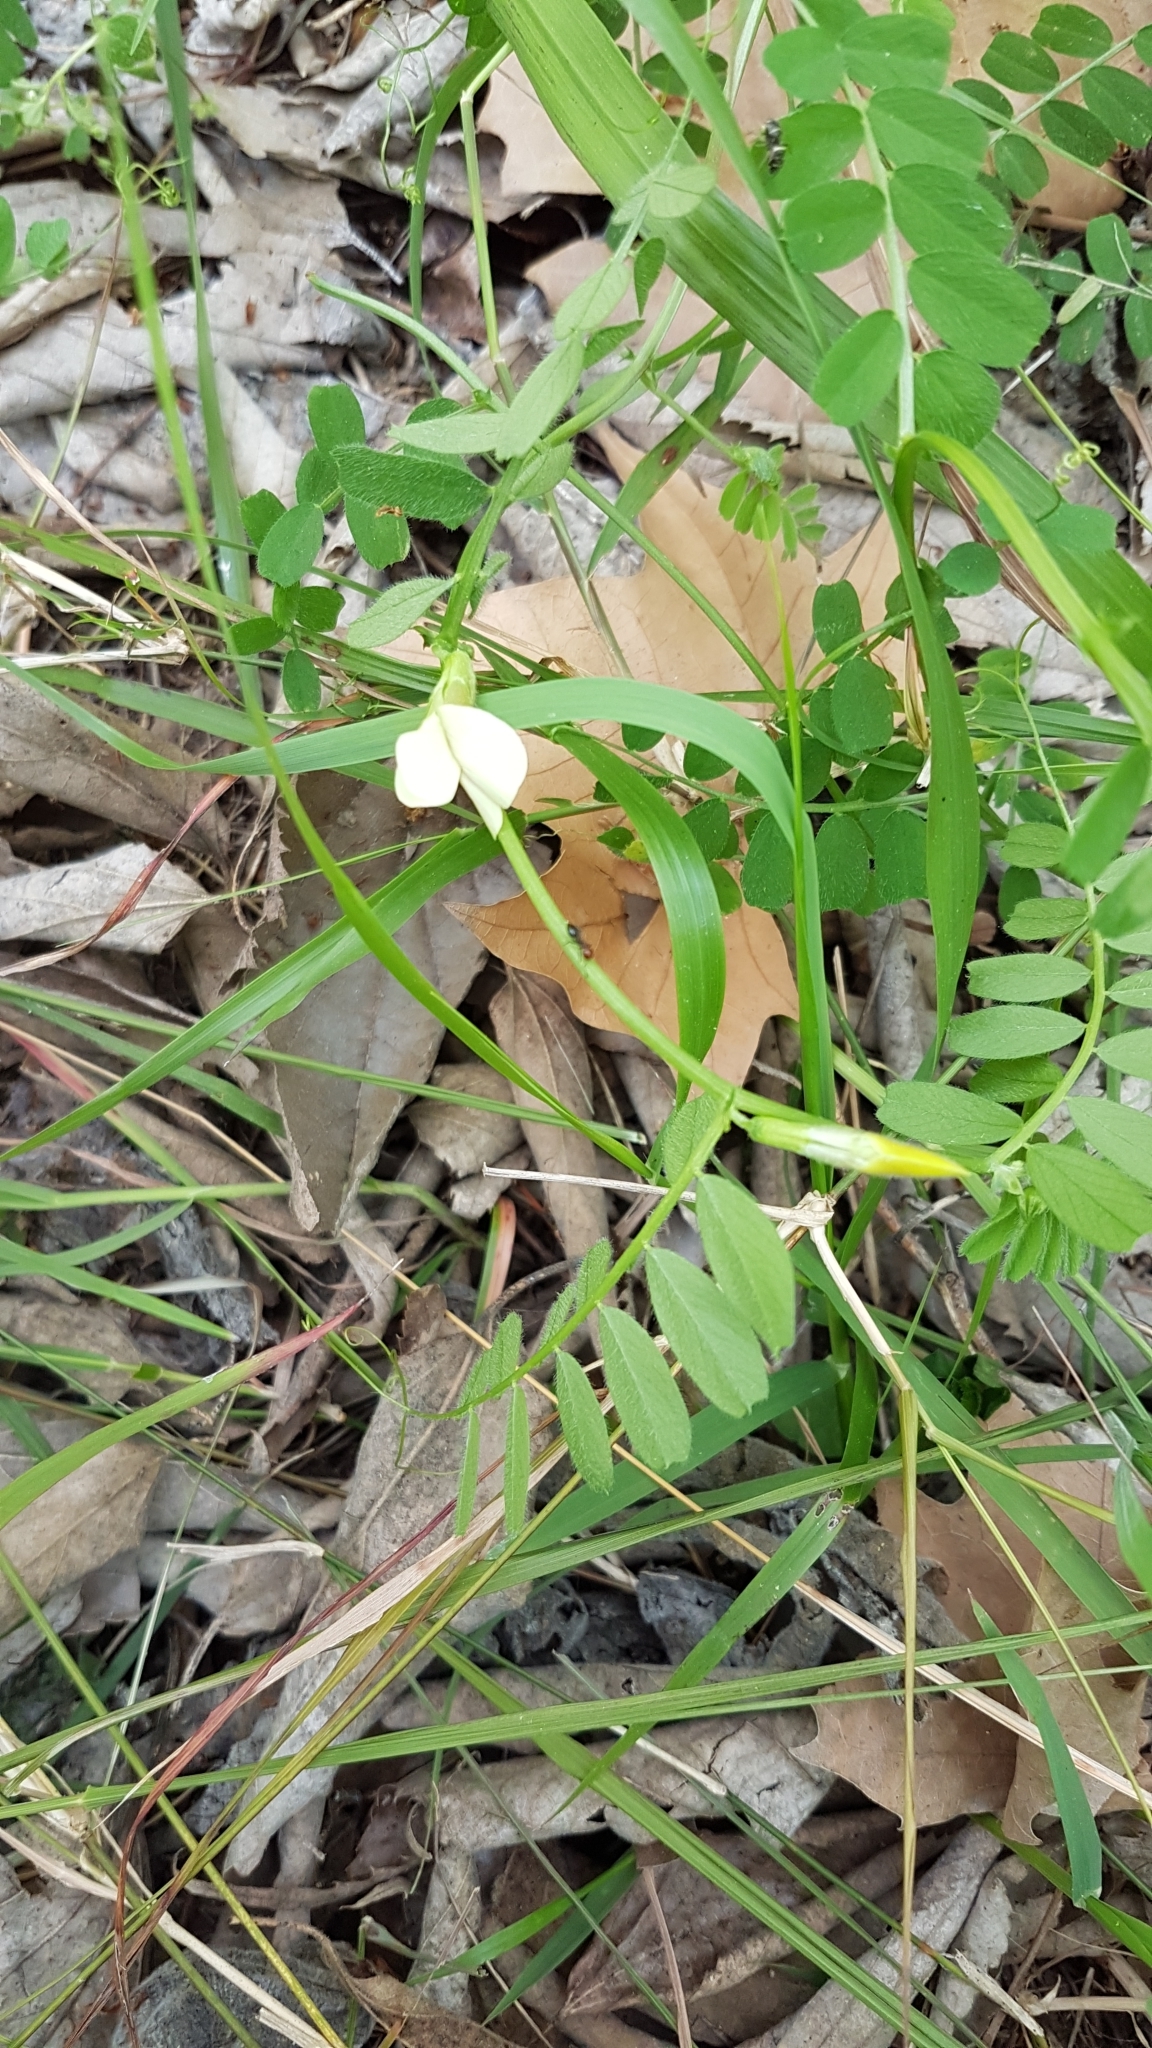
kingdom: Plantae
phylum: Tracheophyta
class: Magnoliopsida
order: Fabales
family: Fabaceae
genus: Vicia
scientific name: Vicia hybrida
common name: Hairy yellow vetch
